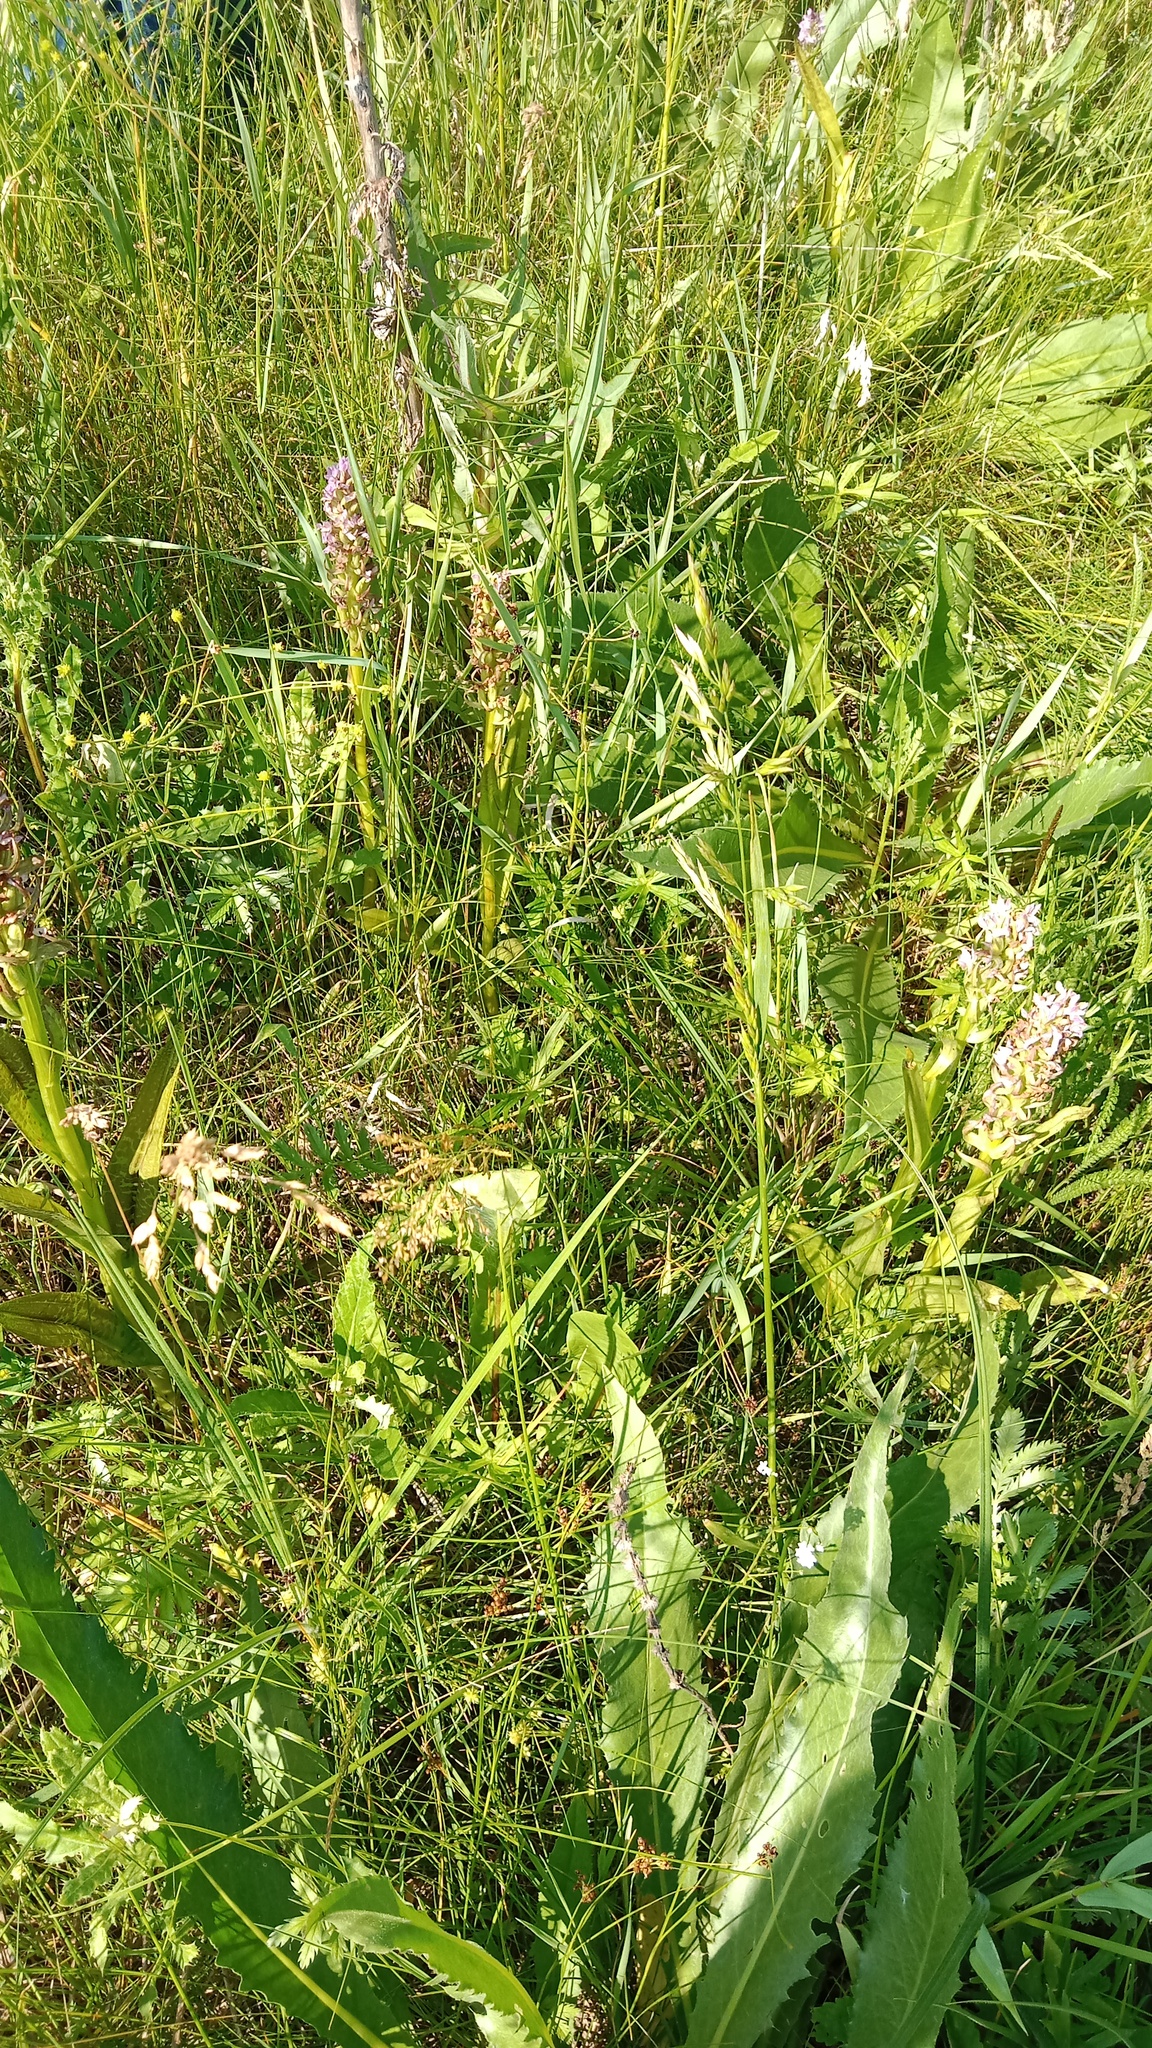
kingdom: Plantae
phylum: Tracheophyta
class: Liliopsida
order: Asparagales
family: Orchidaceae
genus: Dactylorhiza
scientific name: Dactylorhiza incarnata
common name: Early marsh-orchid
